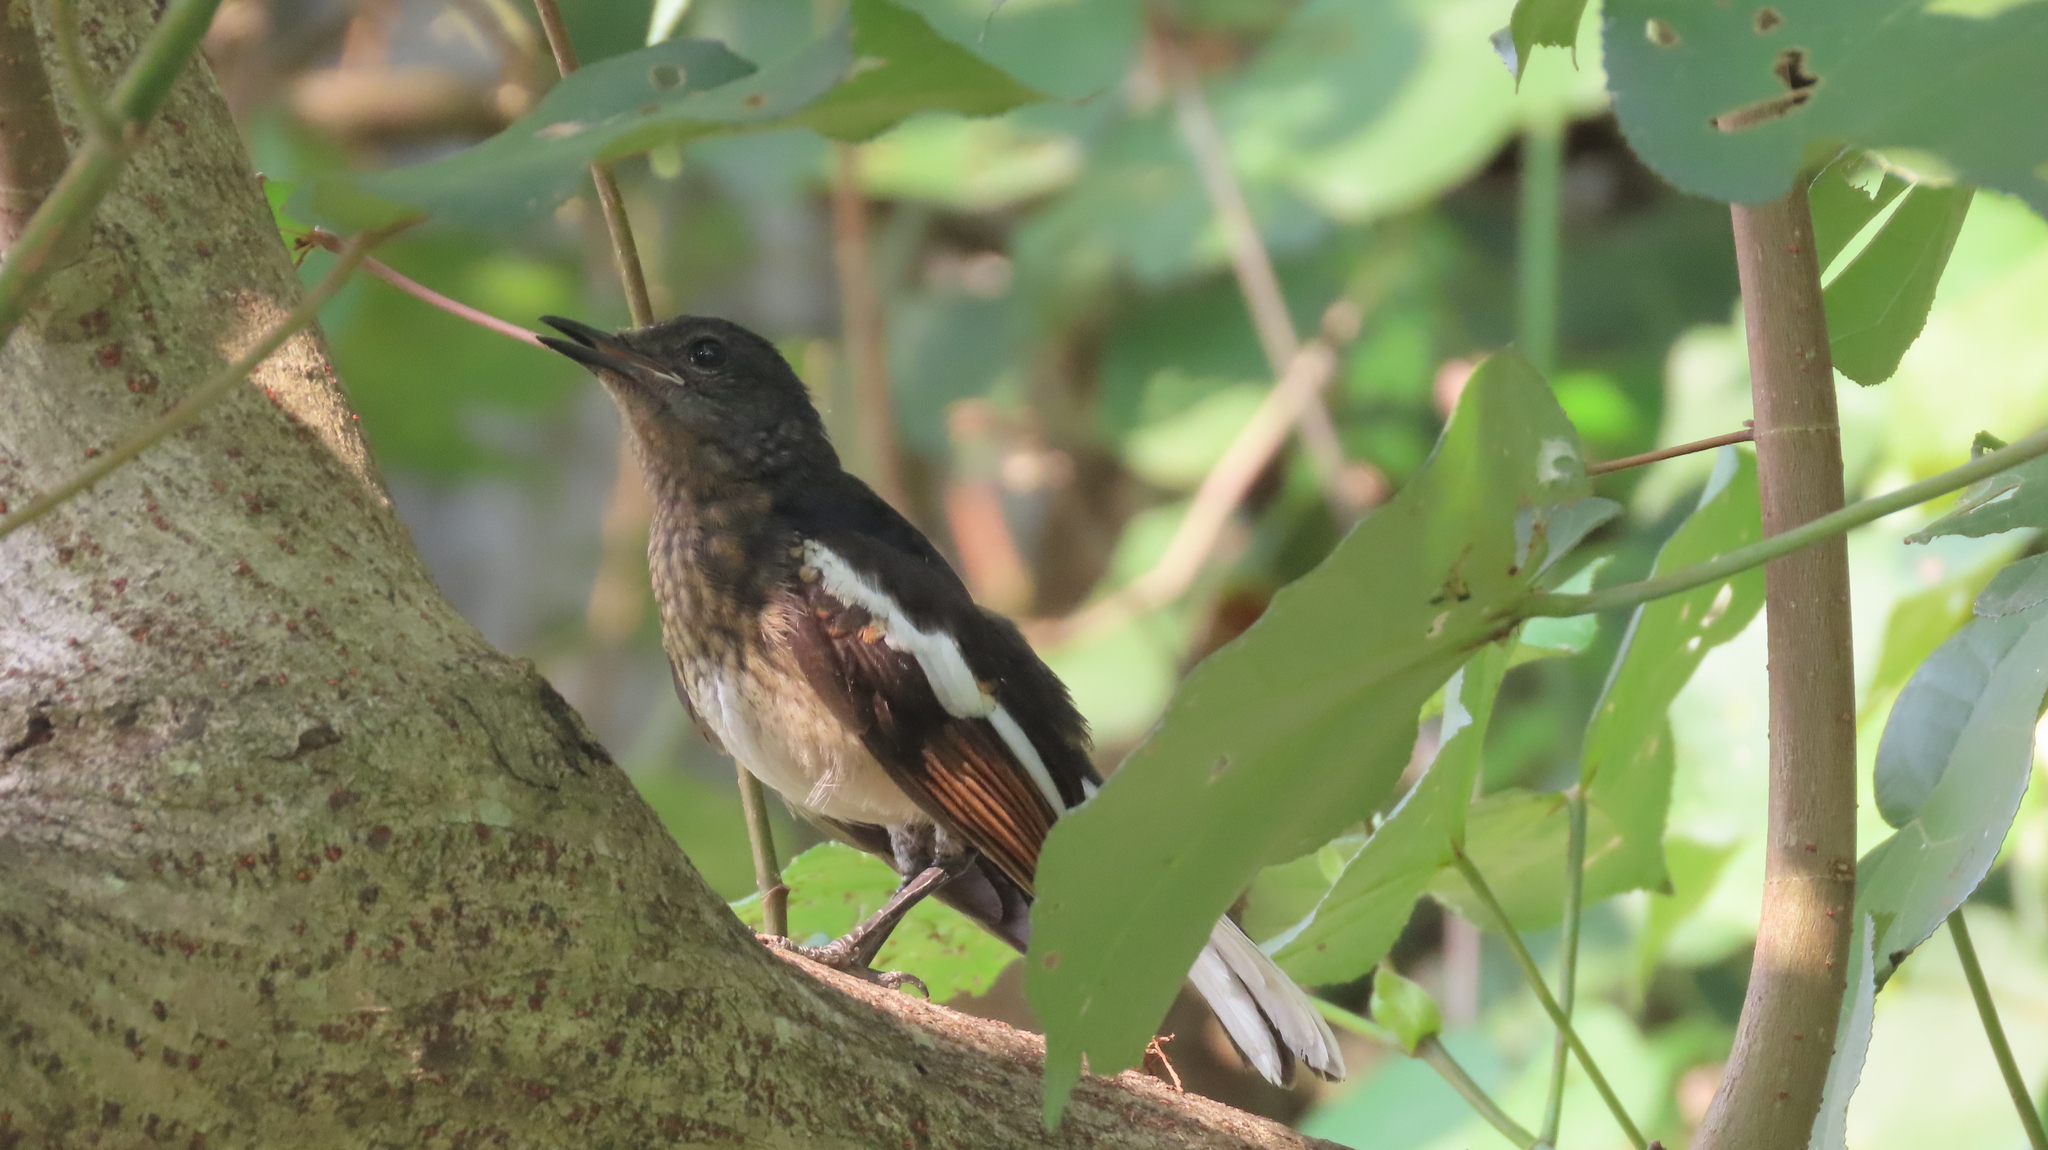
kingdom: Animalia
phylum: Chordata
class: Aves
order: Passeriformes
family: Muscicapidae
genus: Copsychus
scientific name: Copsychus saularis
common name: Oriental magpie-robin
